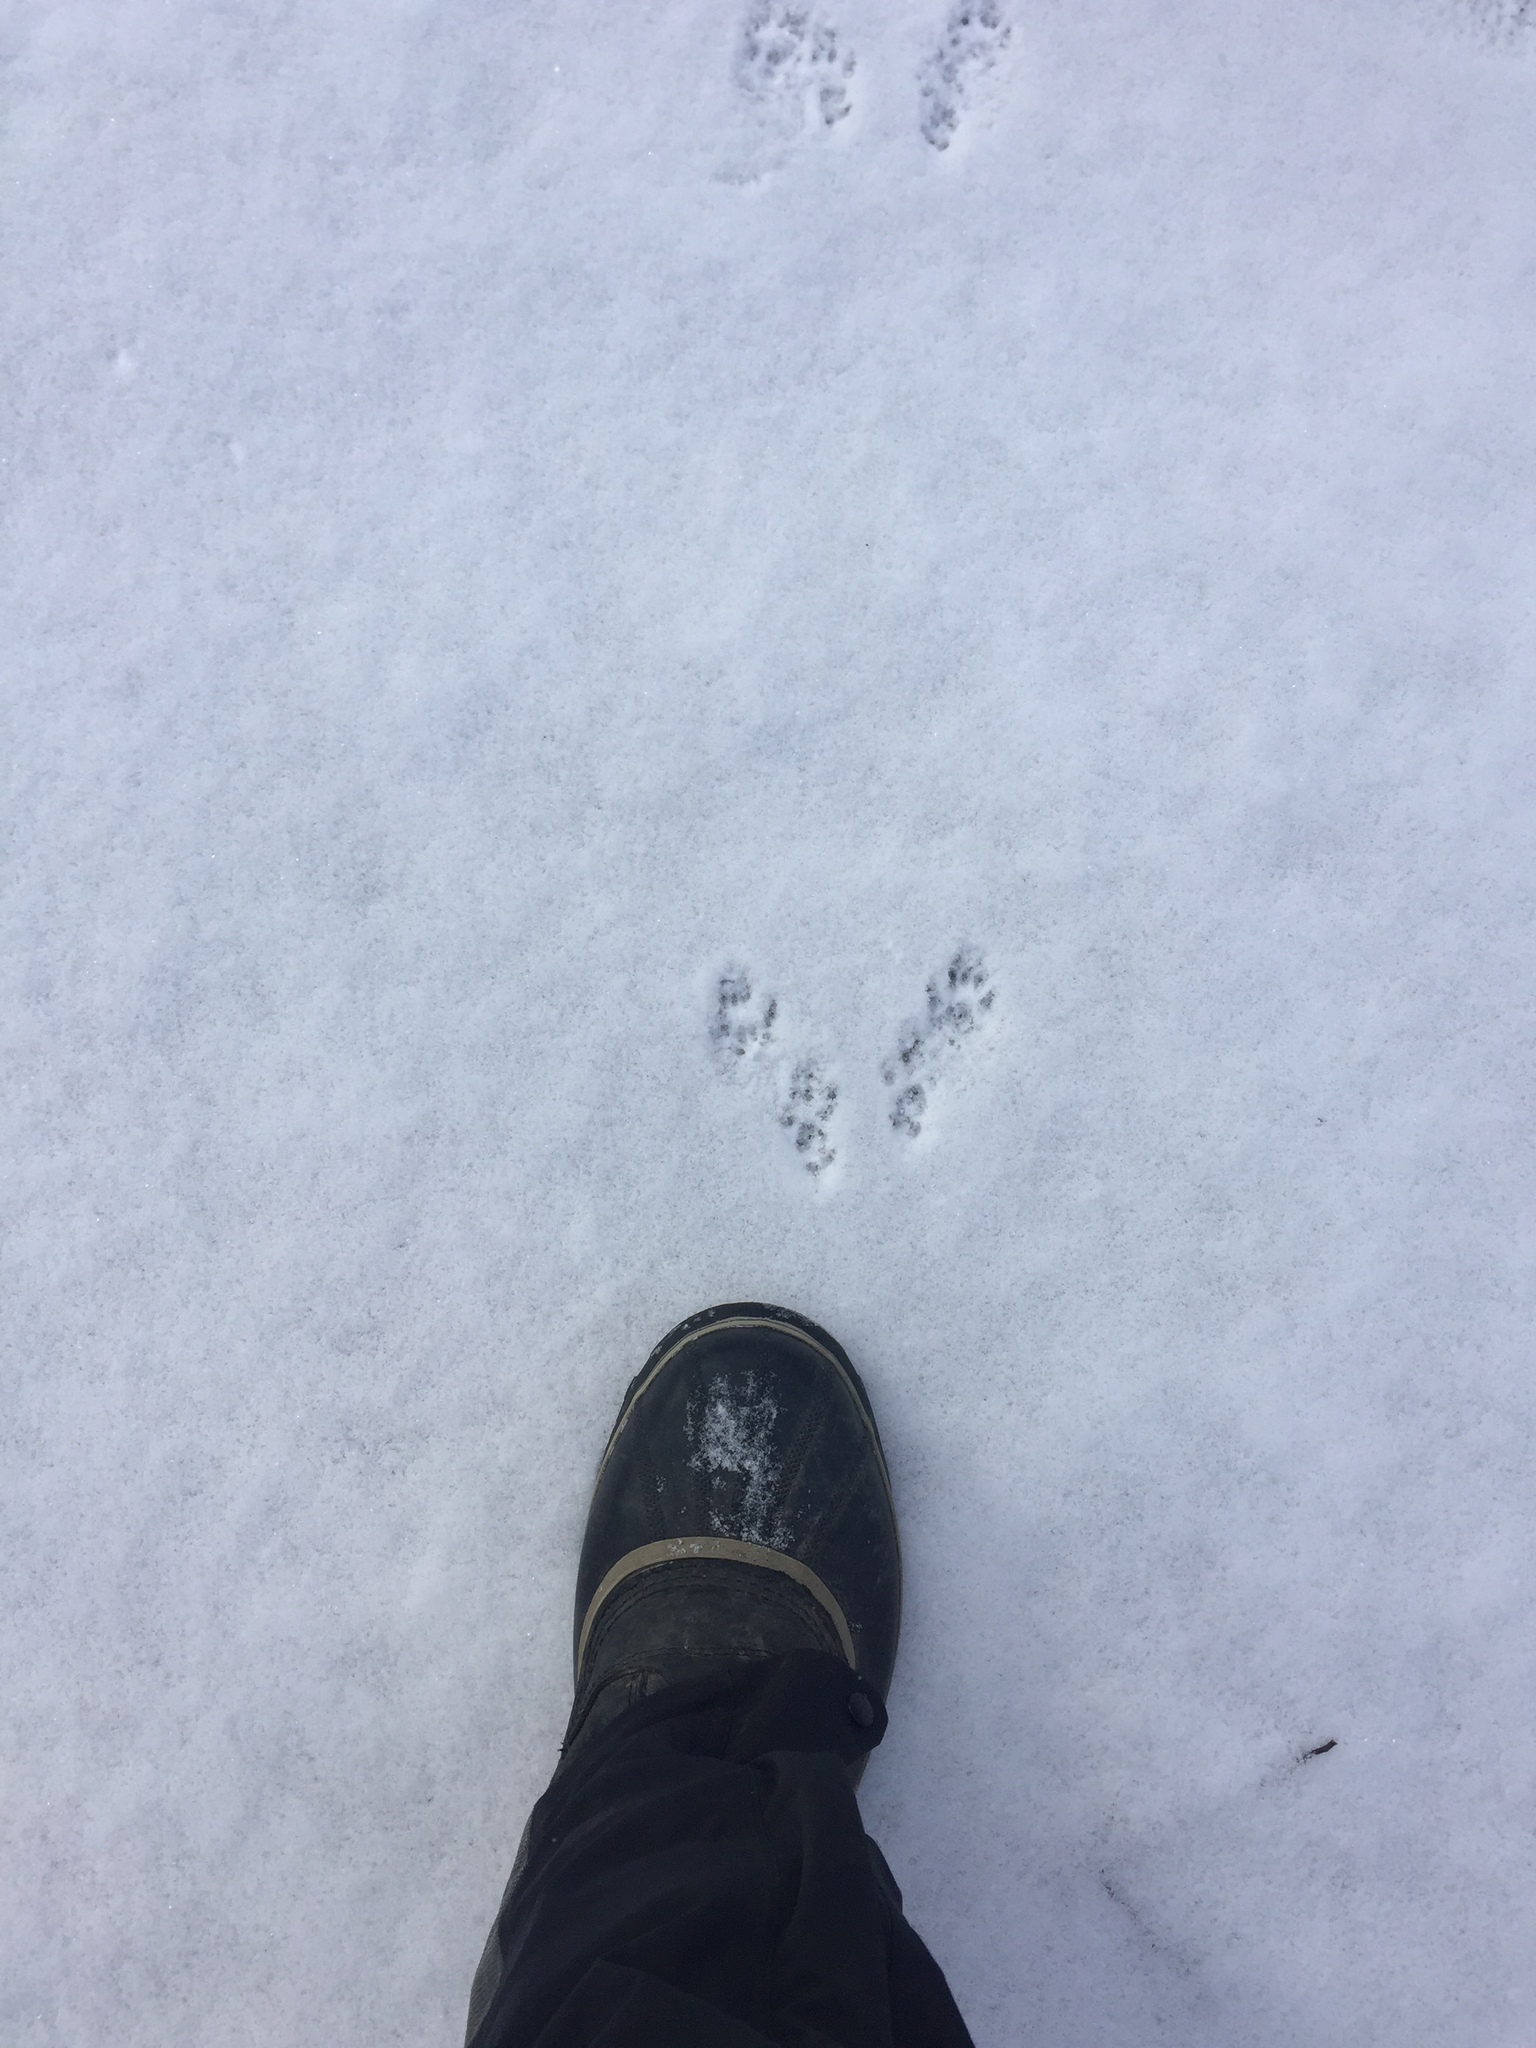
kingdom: Animalia
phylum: Chordata
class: Mammalia
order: Rodentia
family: Sciuridae
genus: Sciurus
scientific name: Sciurus carolinensis
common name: Eastern gray squirrel
